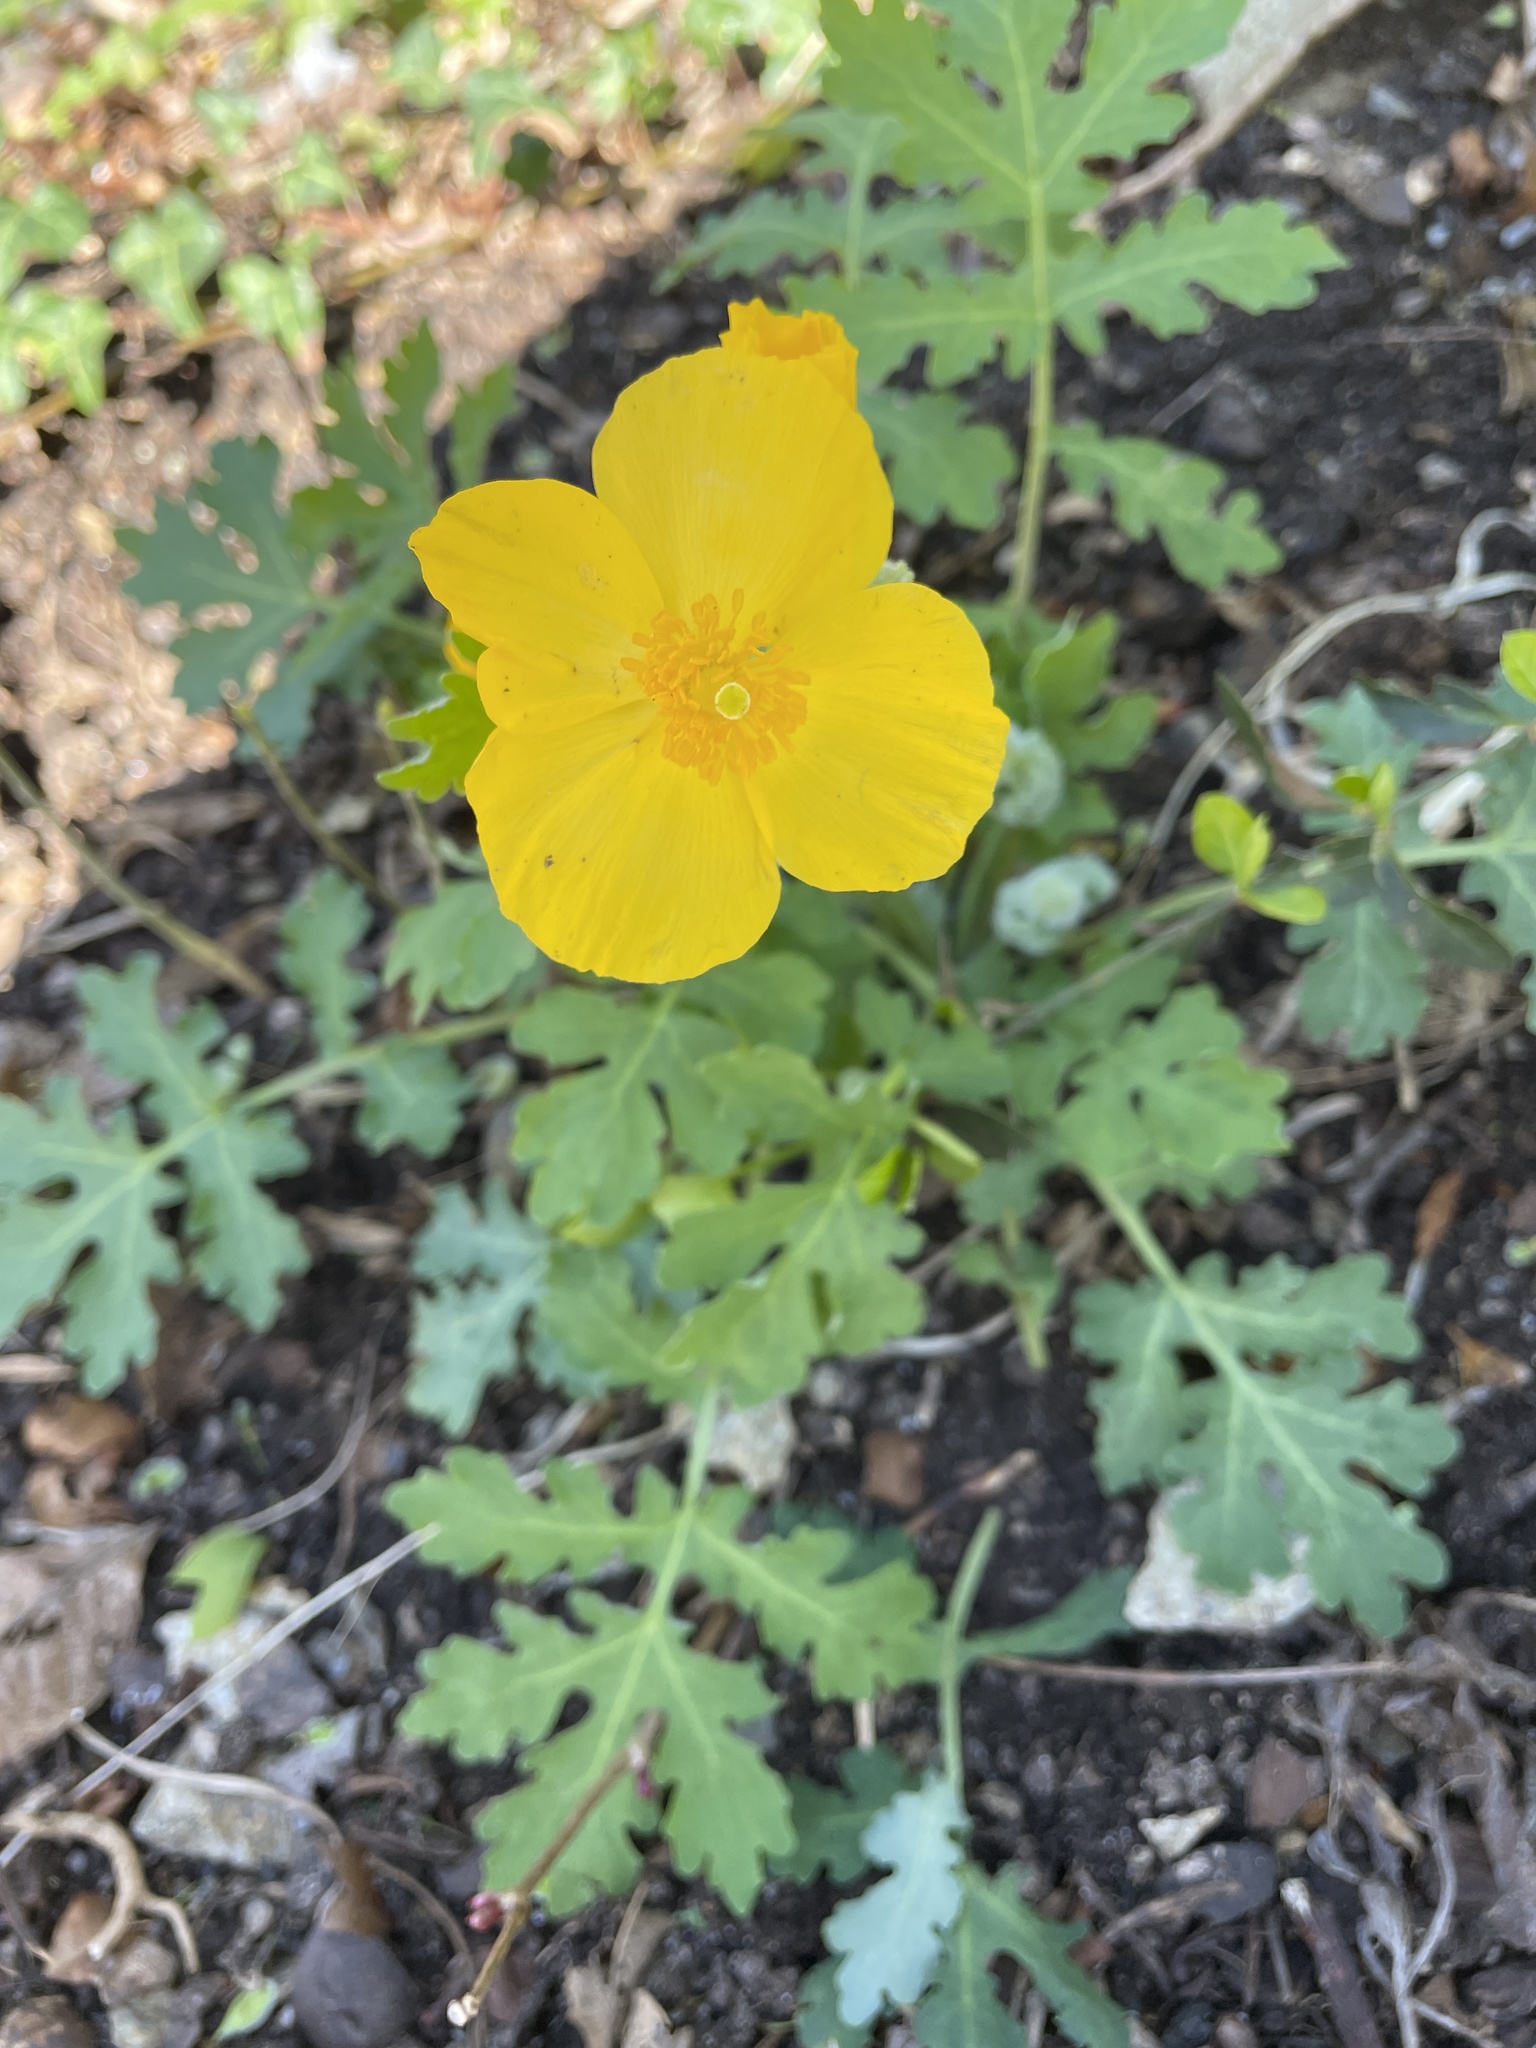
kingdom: Plantae
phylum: Tracheophyta
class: Magnoliopsida
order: Ranunculales
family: Papaveraceae
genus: Stylophorum
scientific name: Stylophorum diphyllum
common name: Celandine poppy
